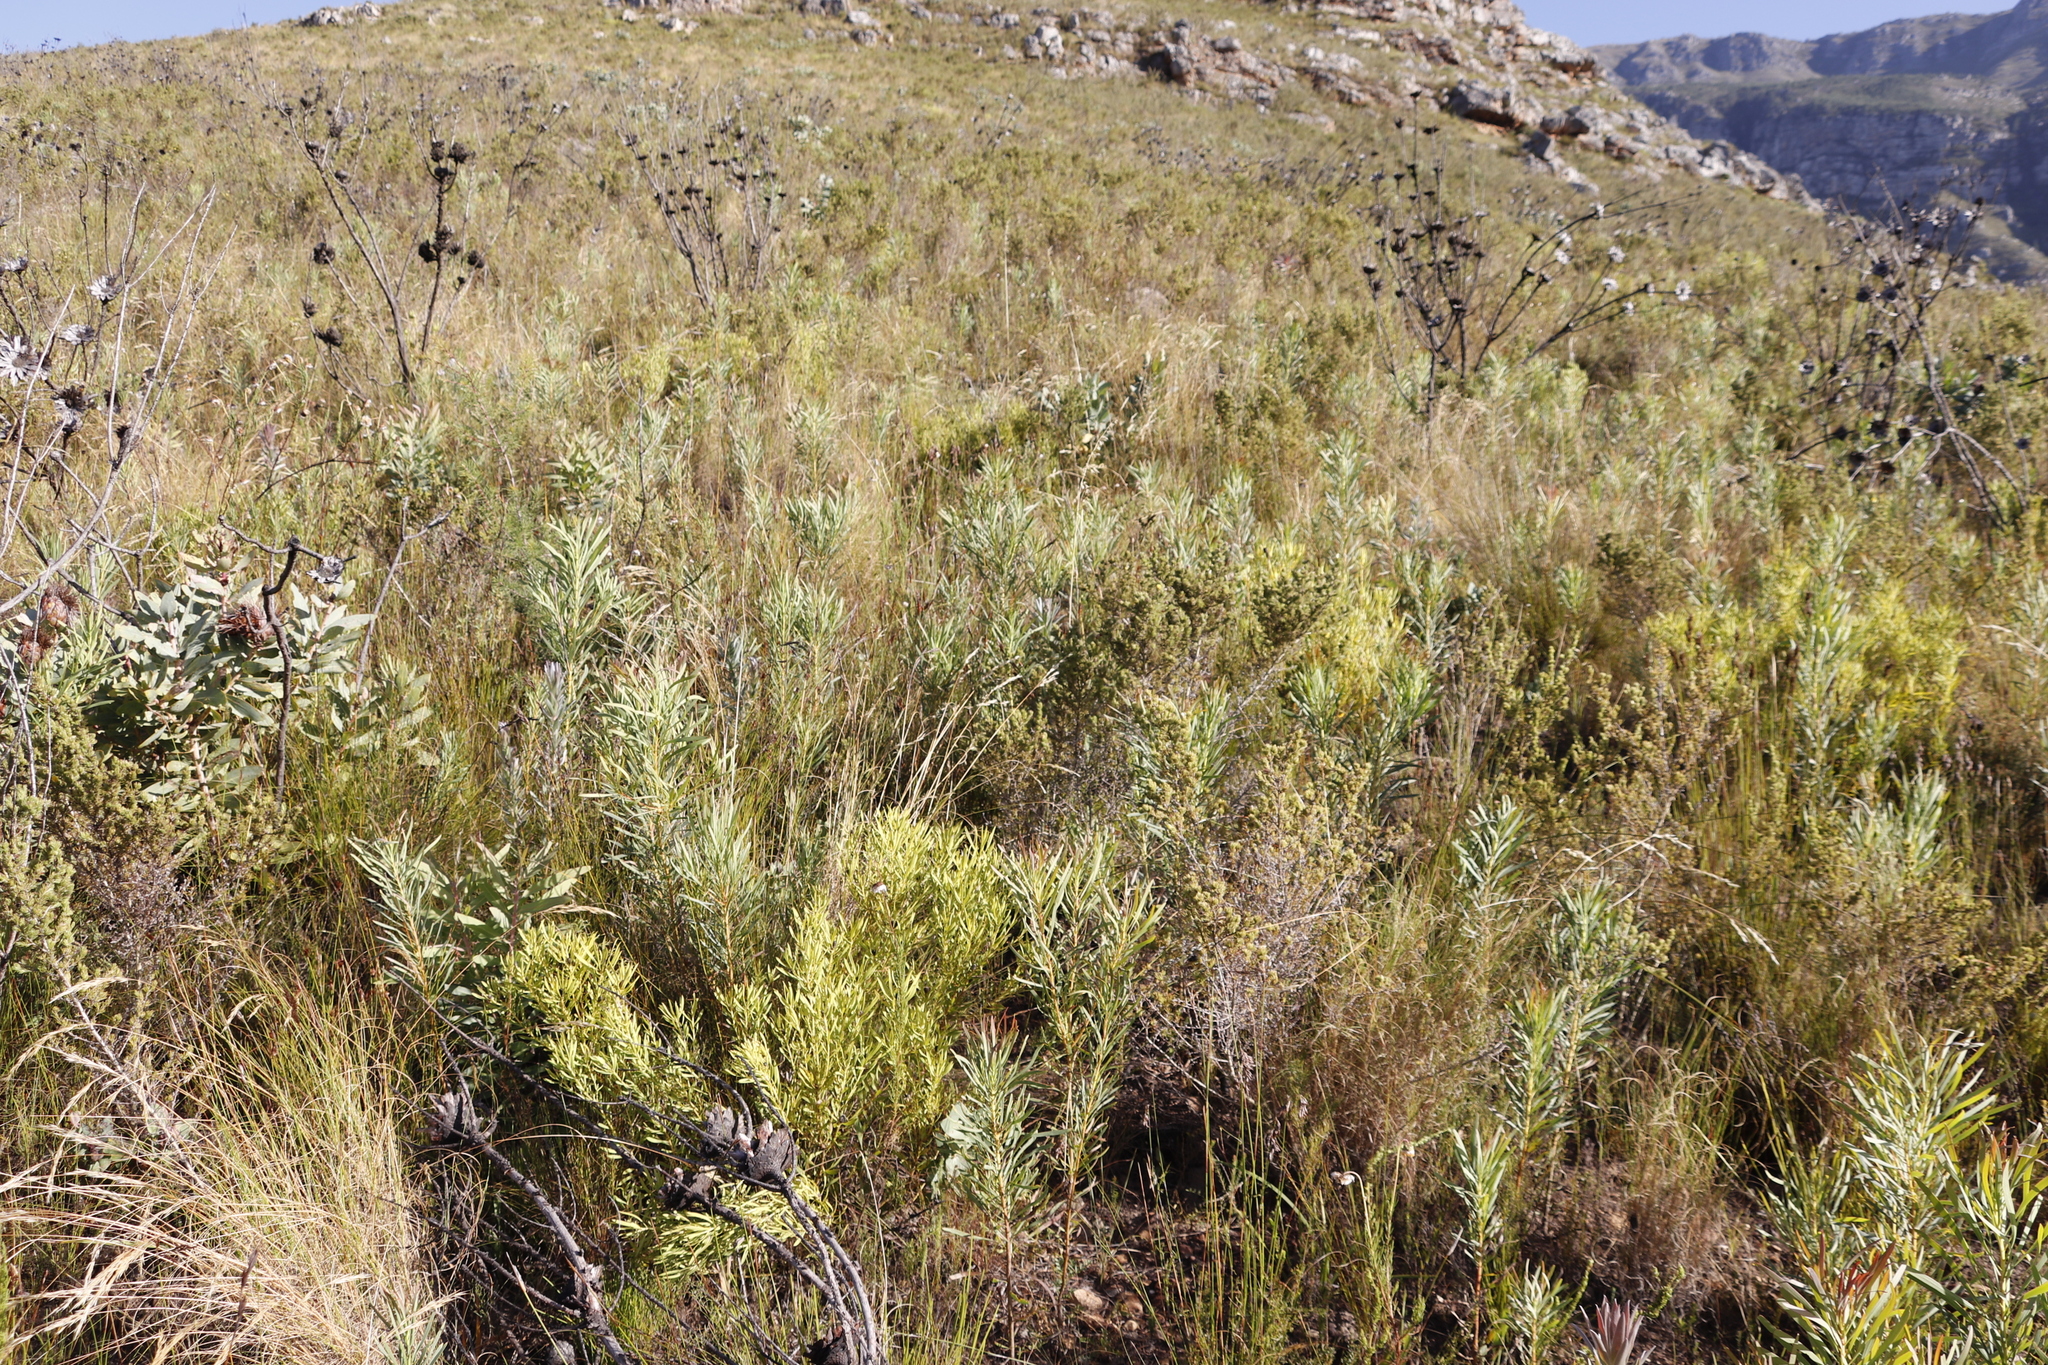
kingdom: Plantae
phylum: Tracheophyta
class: Magnoliopsida
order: Proteales
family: Proteaceae
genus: Leucadendron
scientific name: Leucadendron salignum
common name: Common sunshine conebush
